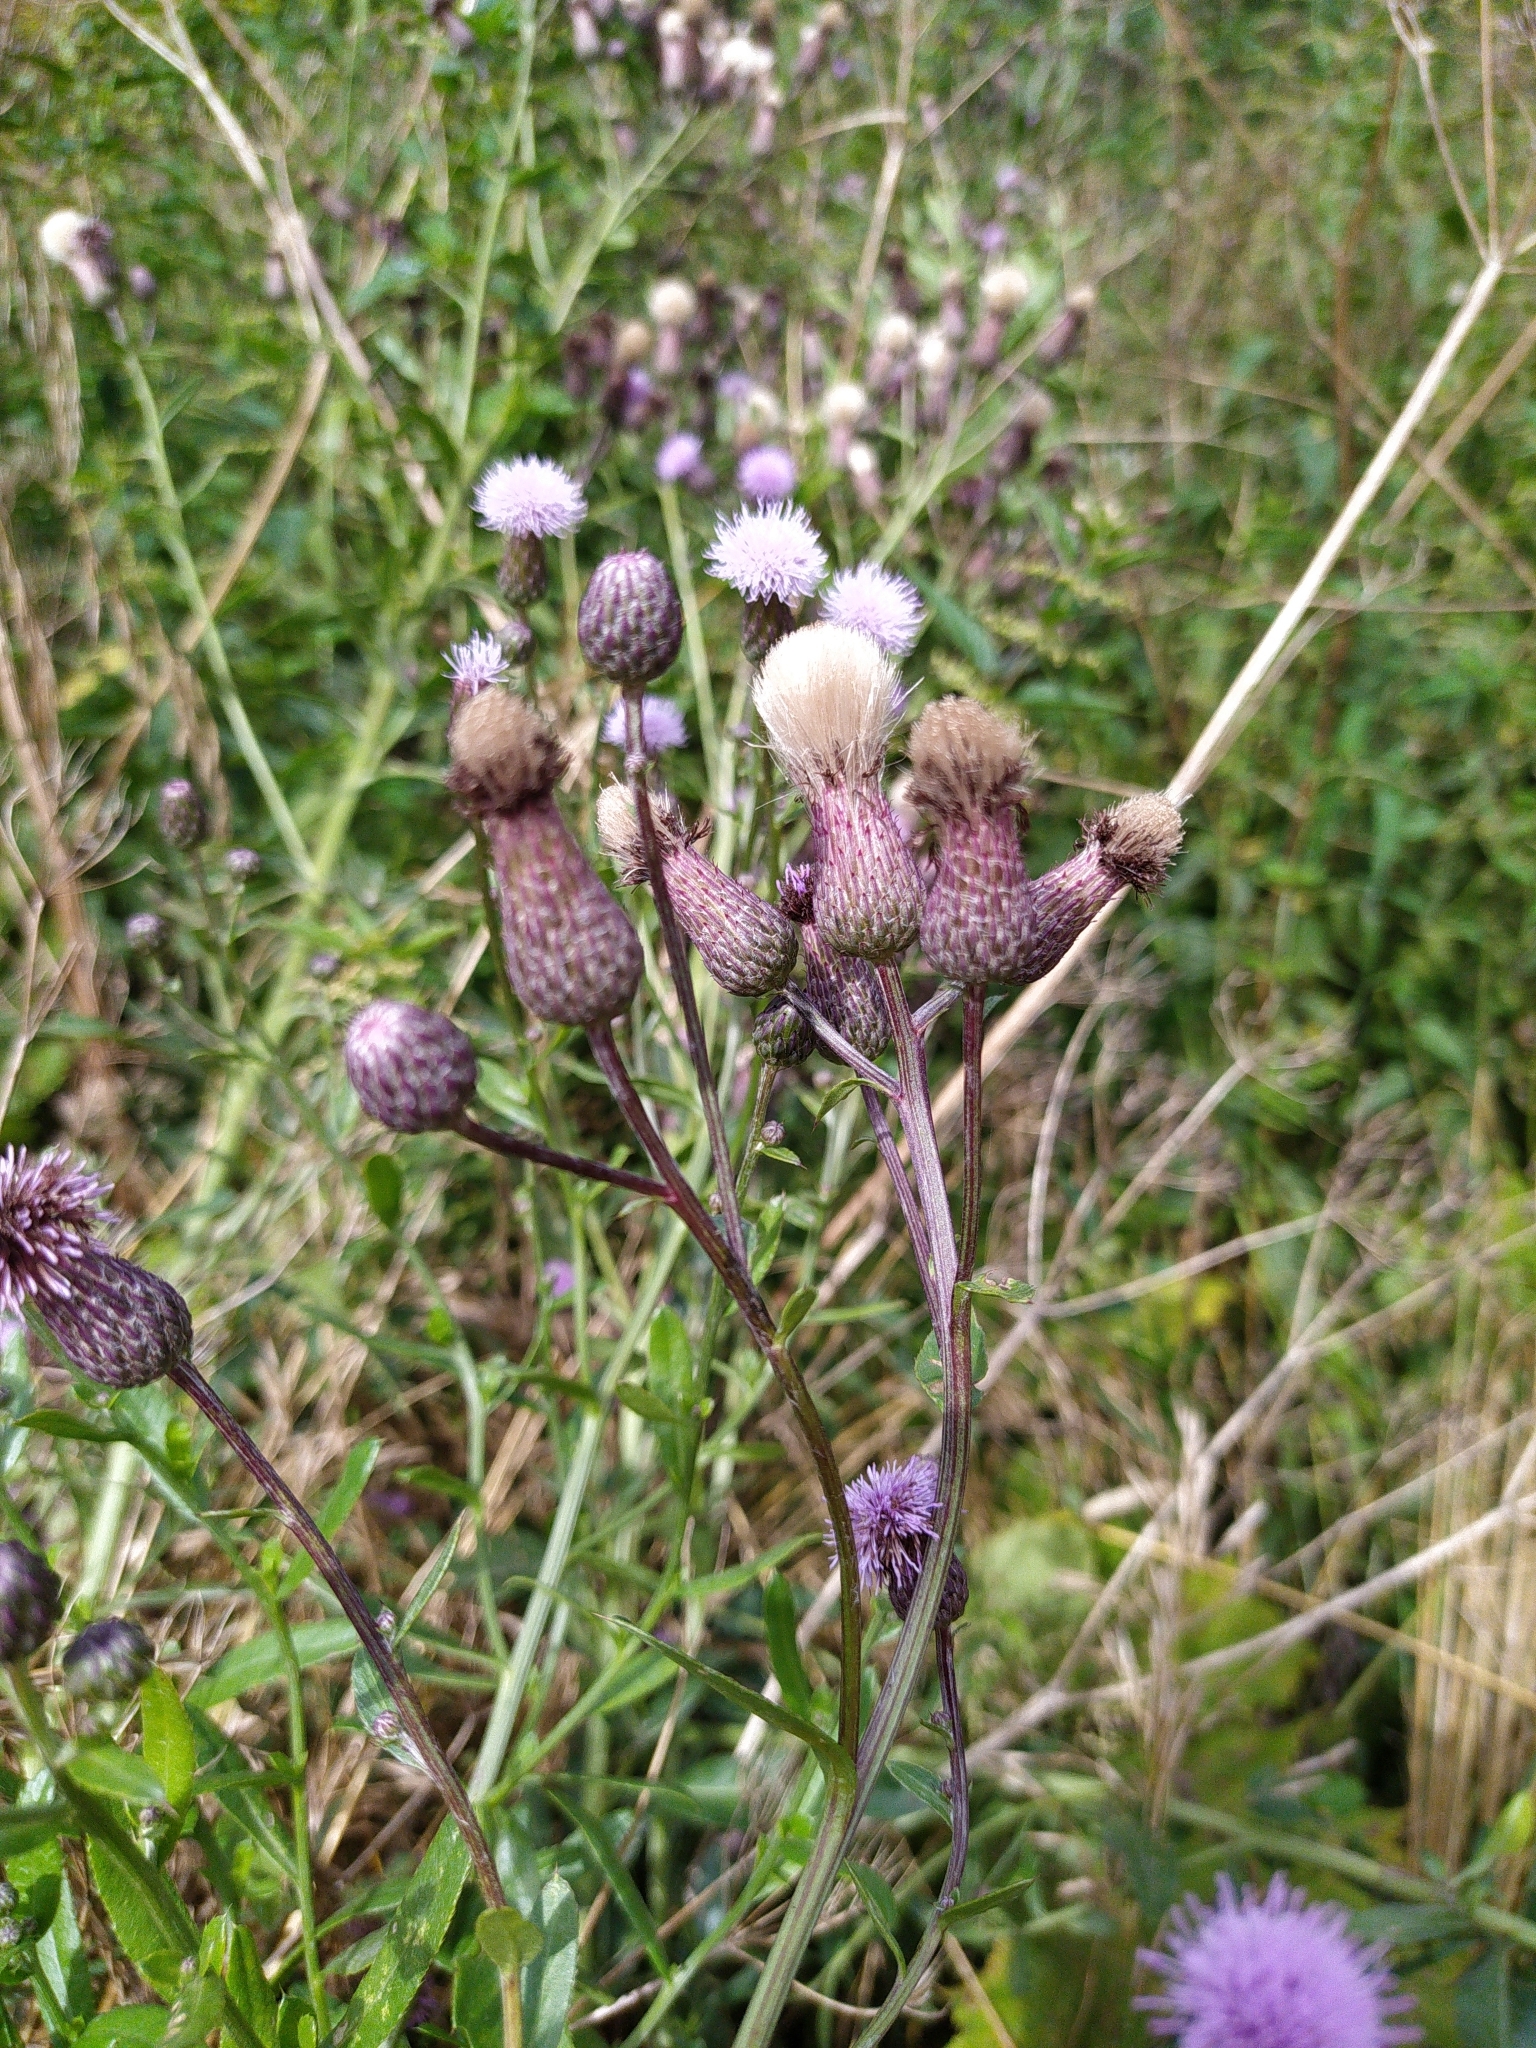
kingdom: Plantae
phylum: Tracheophyta
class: Magnoliopsida
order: Asterales
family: Asteraceae
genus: Cirsium
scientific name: Cirsium arvense
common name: Creeping thistle
